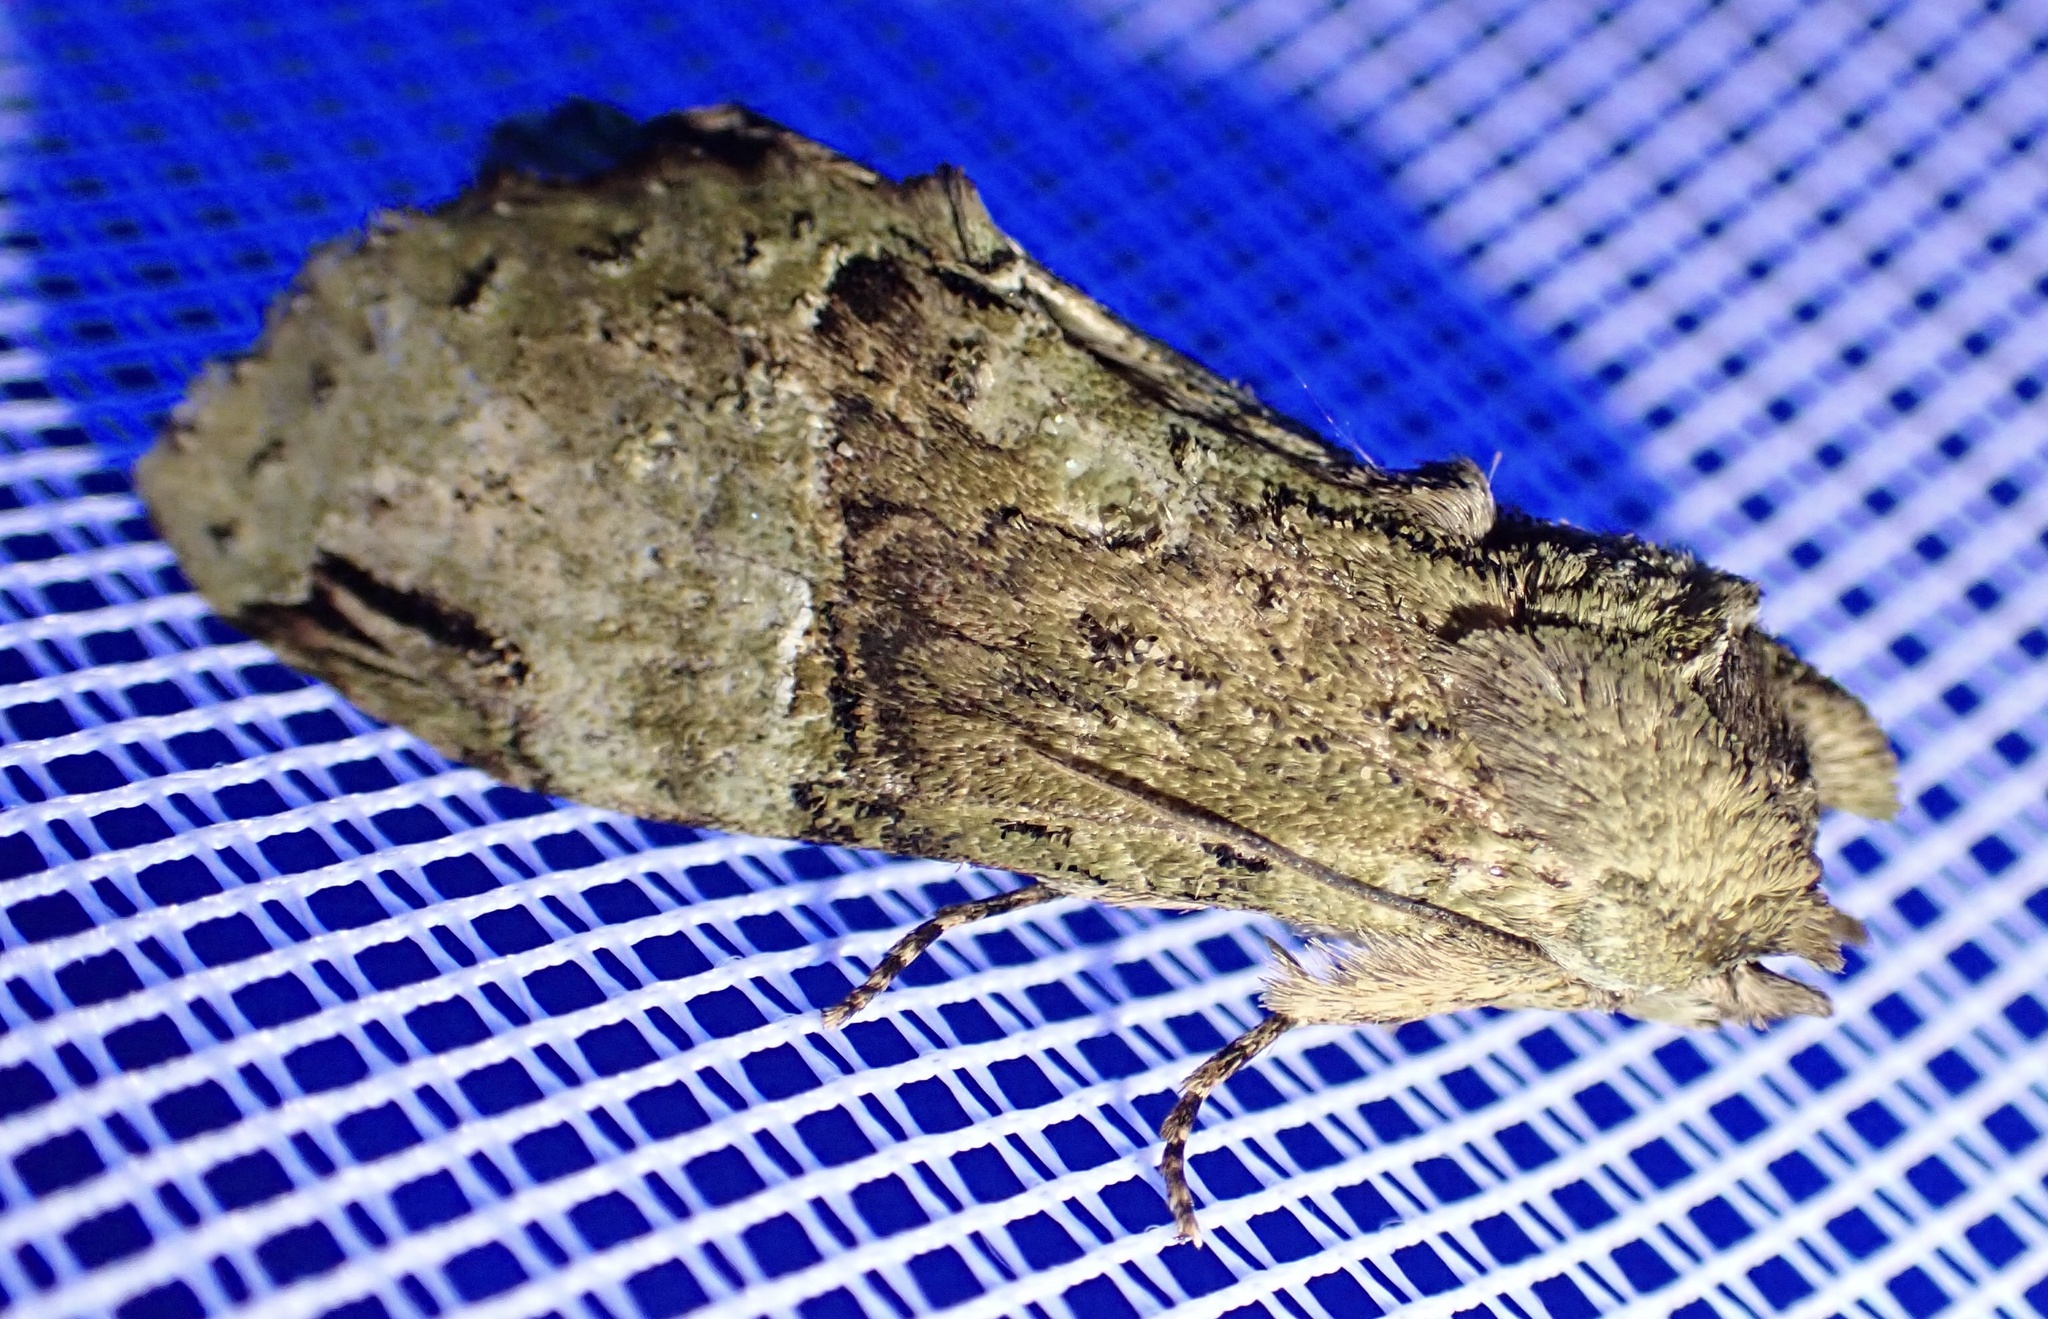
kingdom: Animalia
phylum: Arthropoda
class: Insecta
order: Lepidoptera
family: Notodontidae
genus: Stemmatophalera
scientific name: Stemmatophalera curvilinea
